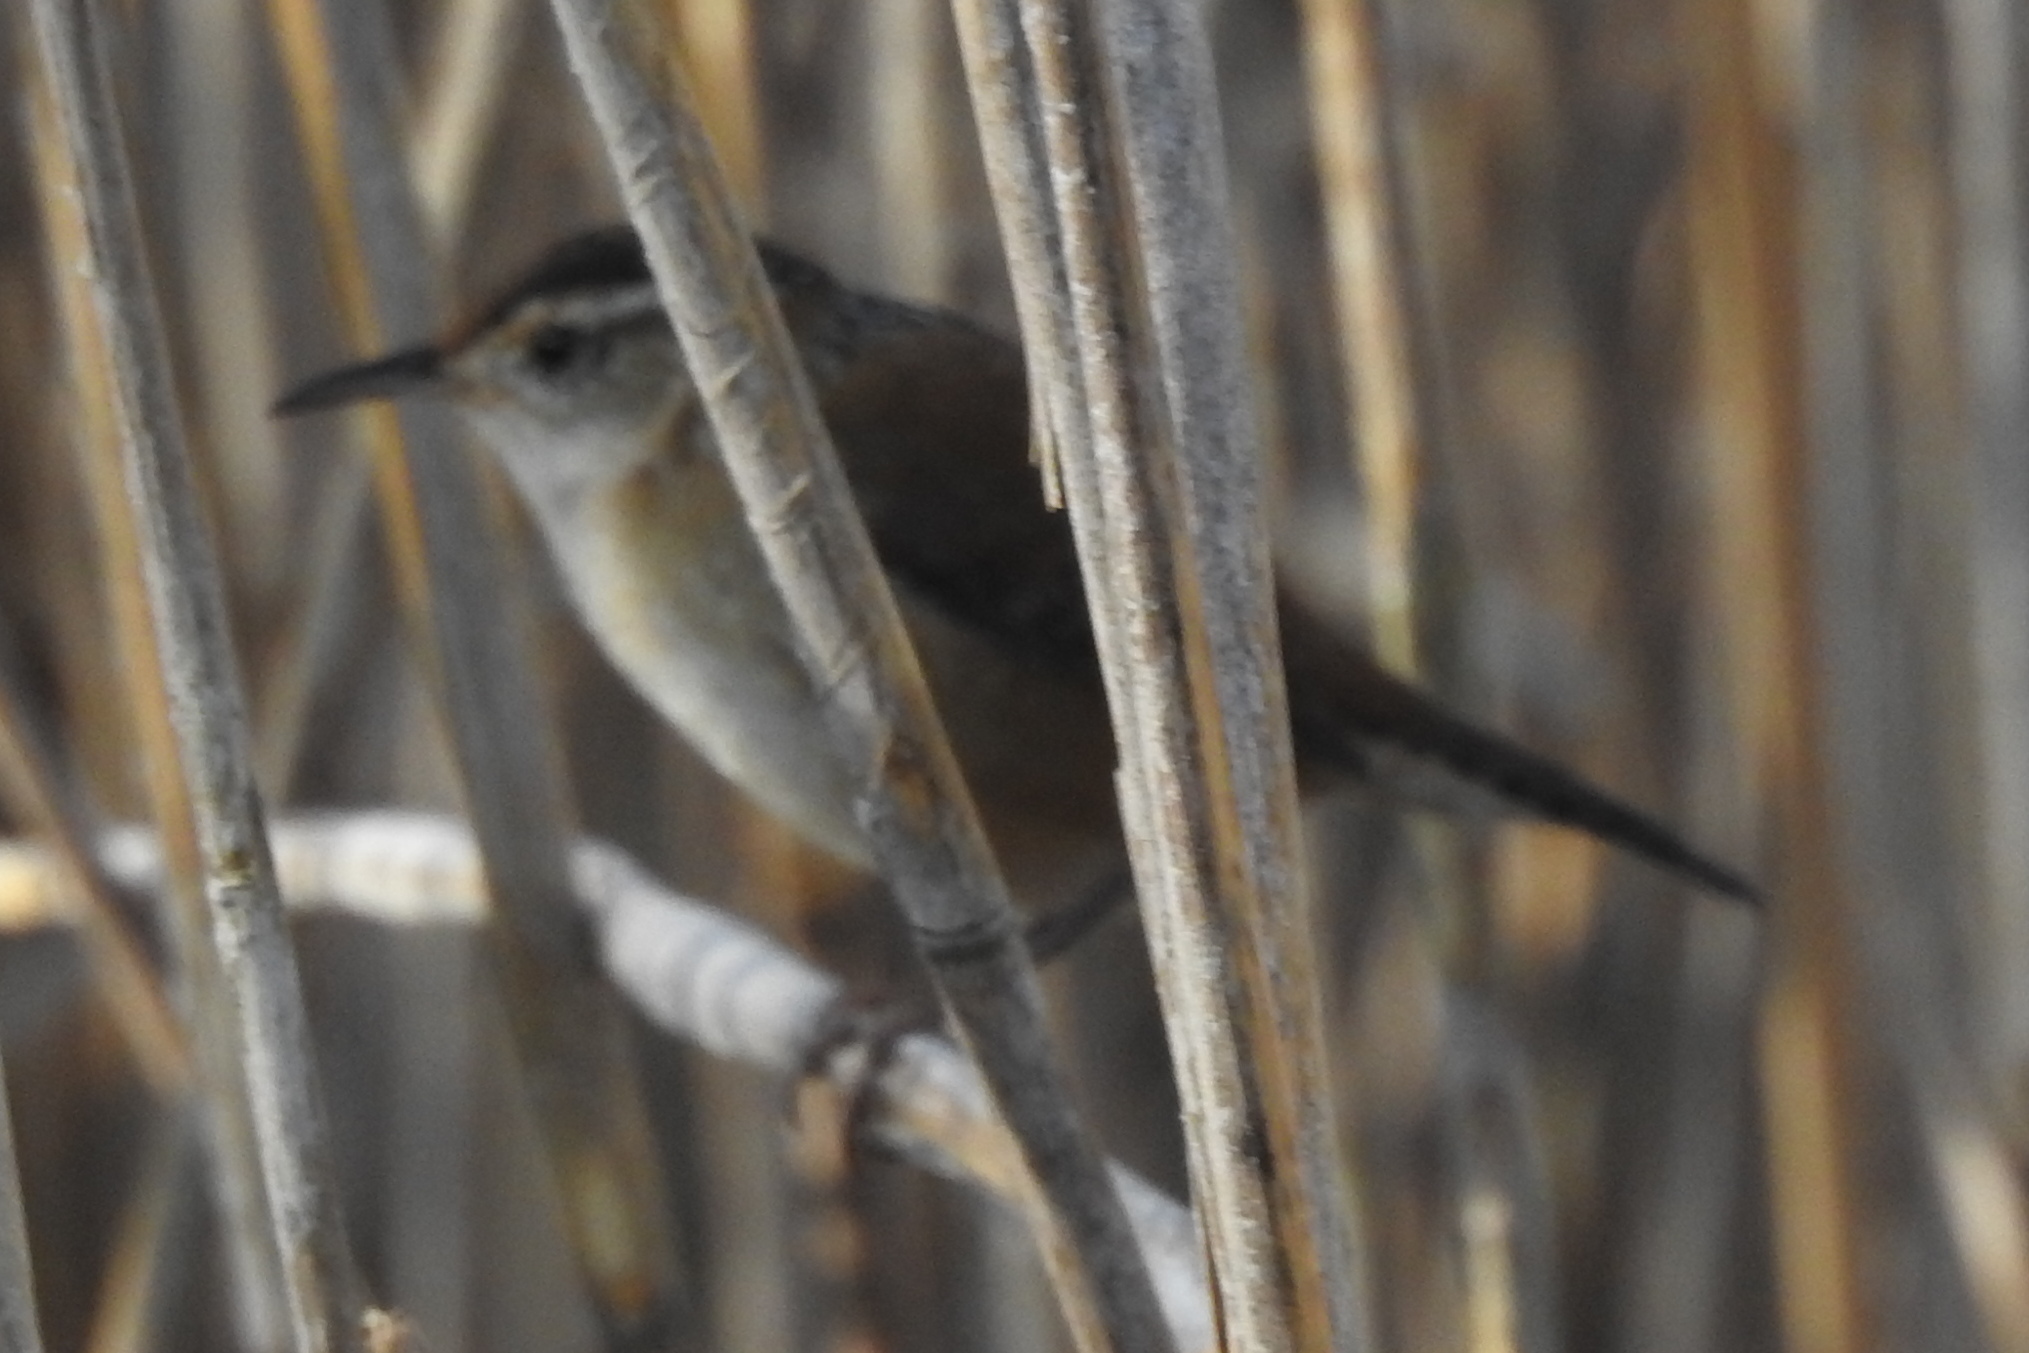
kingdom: Animalia
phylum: Chordata
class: Aves
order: Passeriformes
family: Troglodytidae
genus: Cistothorus
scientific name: Cistothorus palustris
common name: Marsh wren
